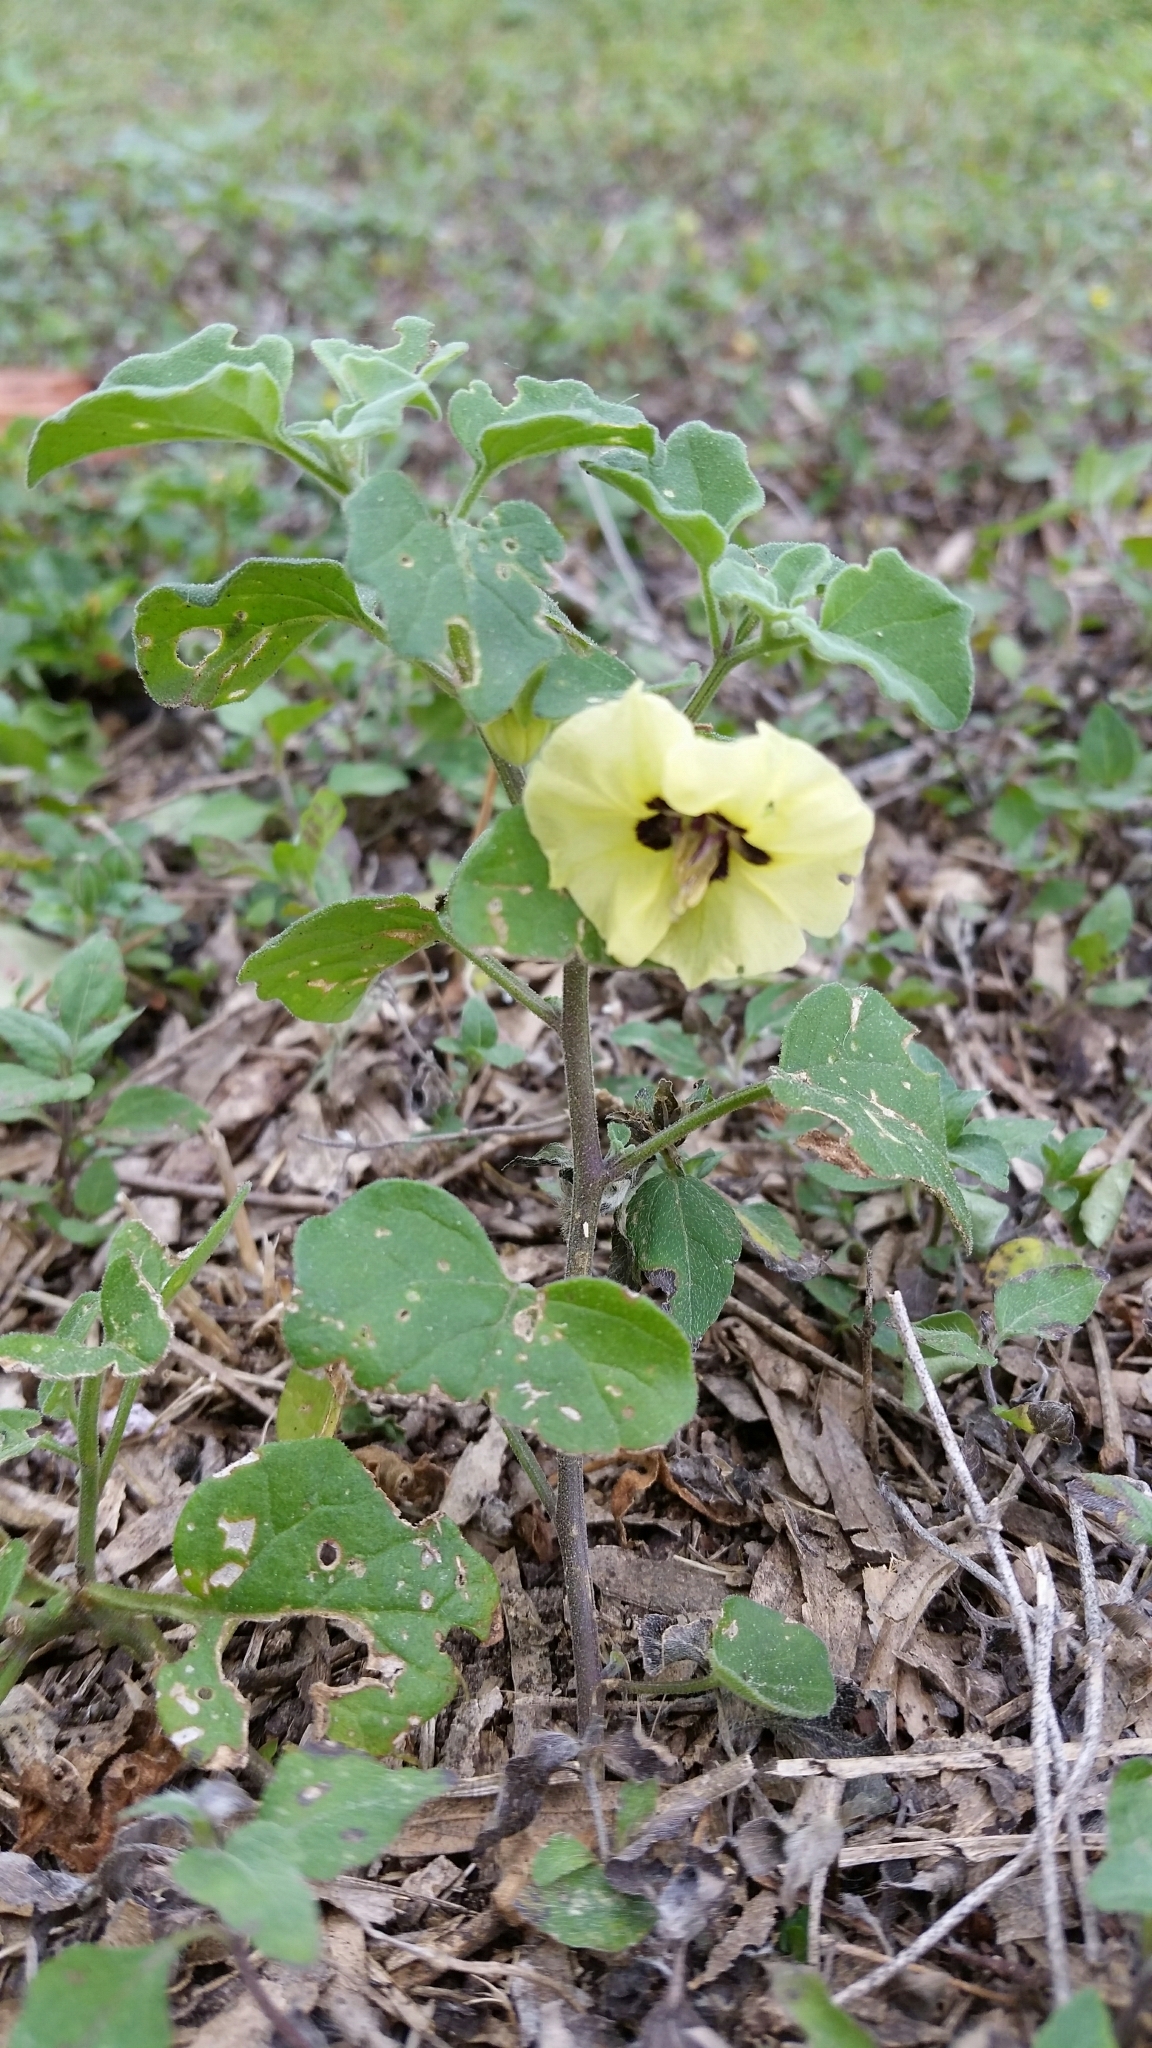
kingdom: Plantae
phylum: Tracheophyta
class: Magnoliopsida
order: Solanales
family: Solanaceae
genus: Physalis
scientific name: Physalis cinerascens
